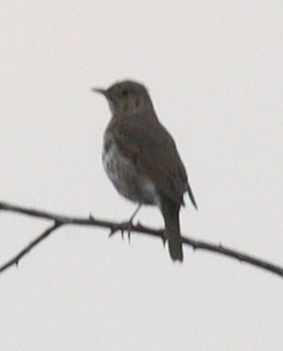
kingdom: Animalia
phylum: Chordata
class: Aves
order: Passeriformes
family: Turdidae
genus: Turdus
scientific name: Turdus philomelos
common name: Song thrush
